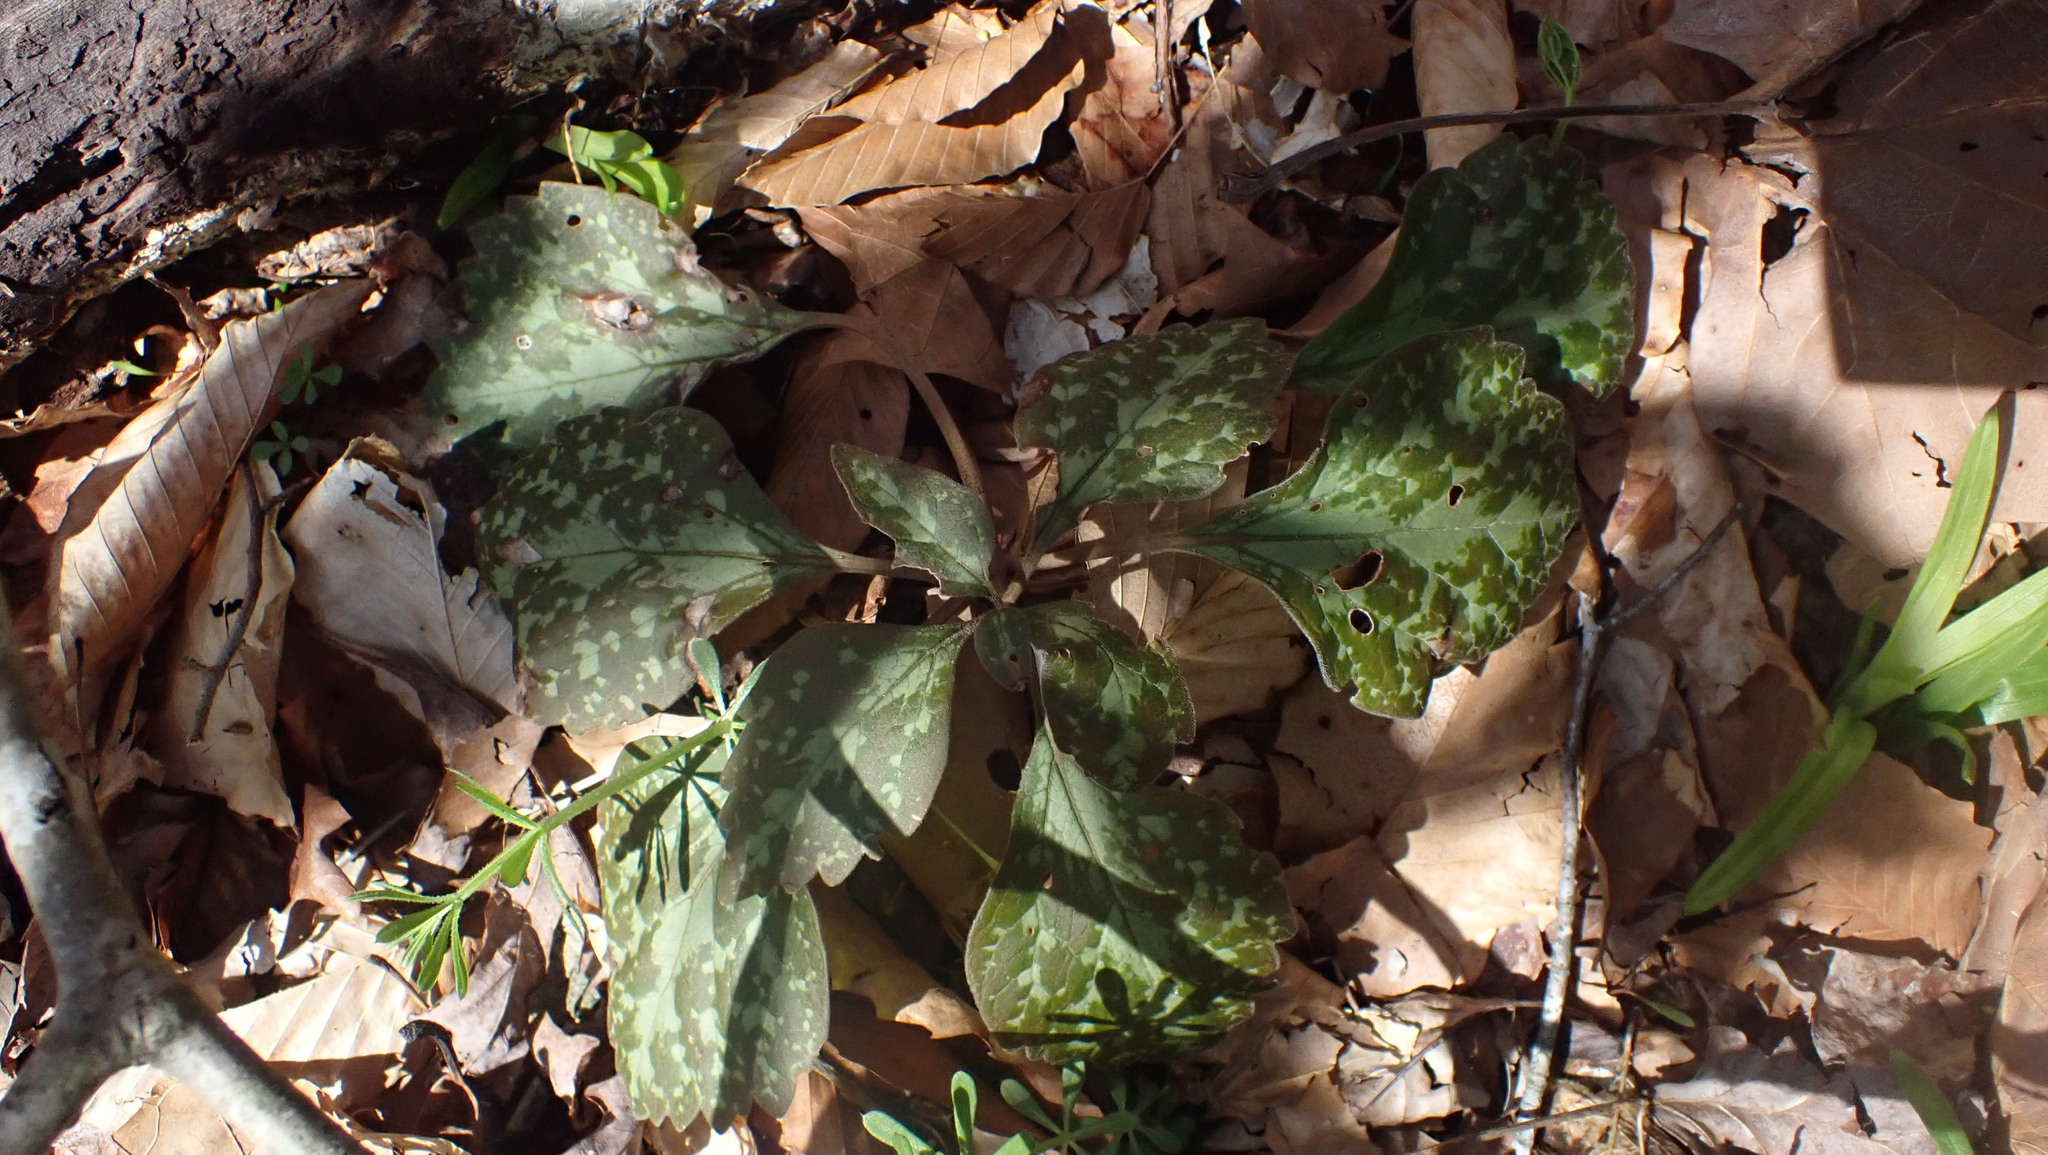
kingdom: Plantae
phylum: Tracheophyta
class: Magnoliopsida
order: Buxales
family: Buxaceae
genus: Pachysandra
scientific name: Pachysandra procumbens
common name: Mountain-spurge
